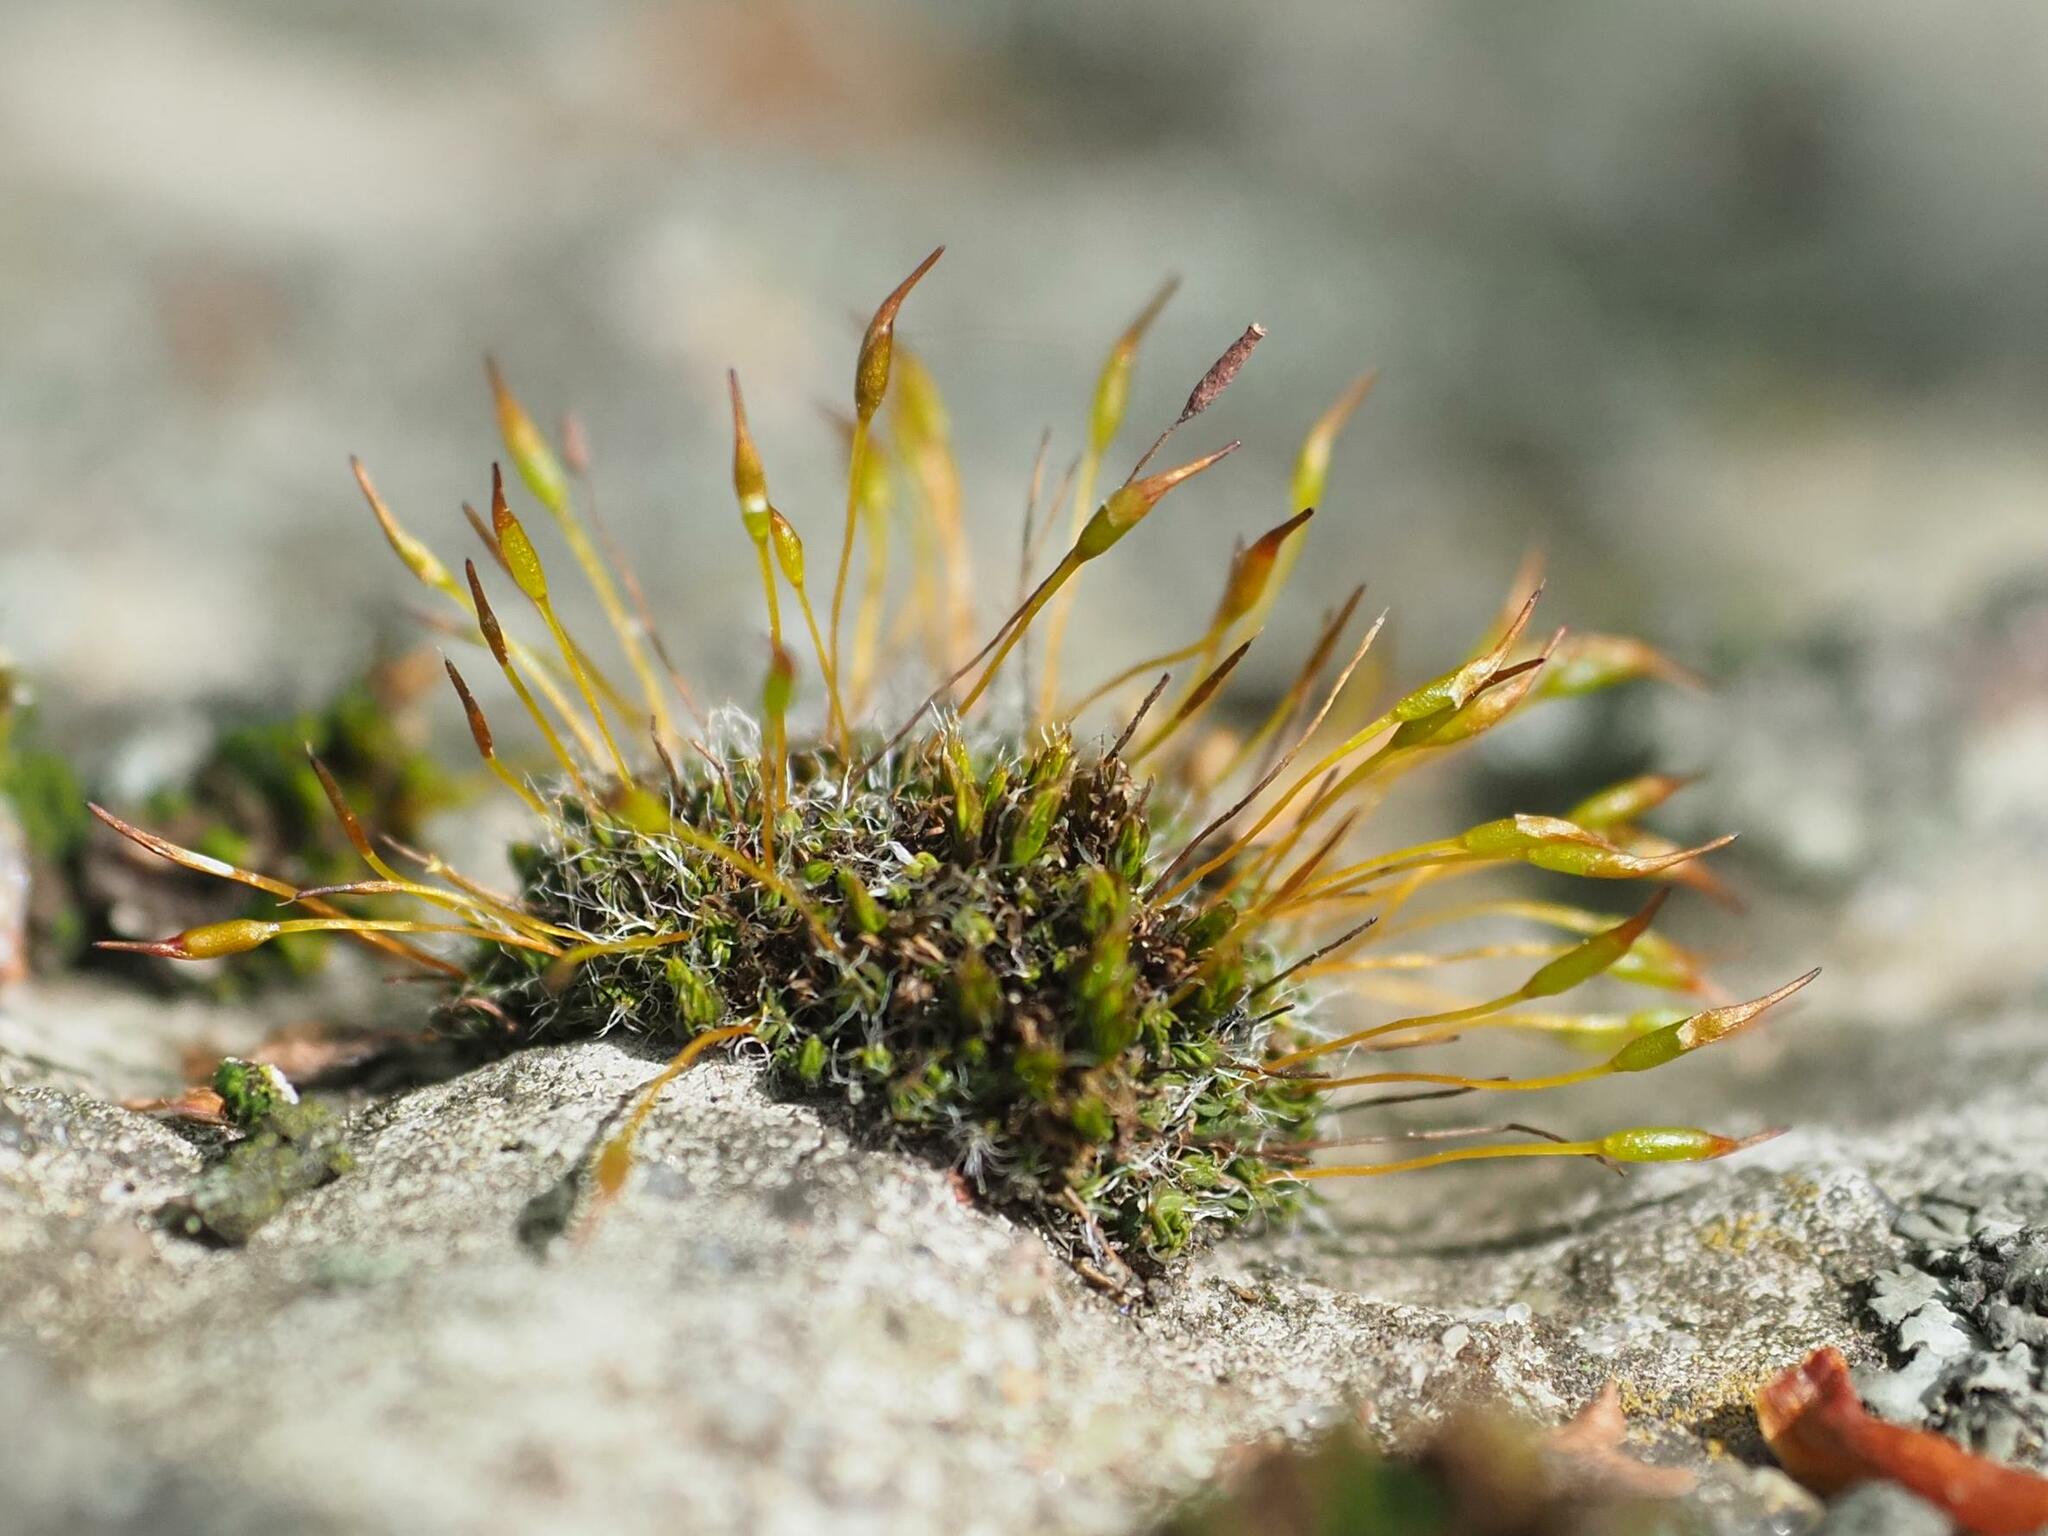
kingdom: Plantae
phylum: Bryophyta
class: Bryopsida
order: Pottiales
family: Pottiaceae
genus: Tortula
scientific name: Tortula muralis
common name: Wall screw-moss
